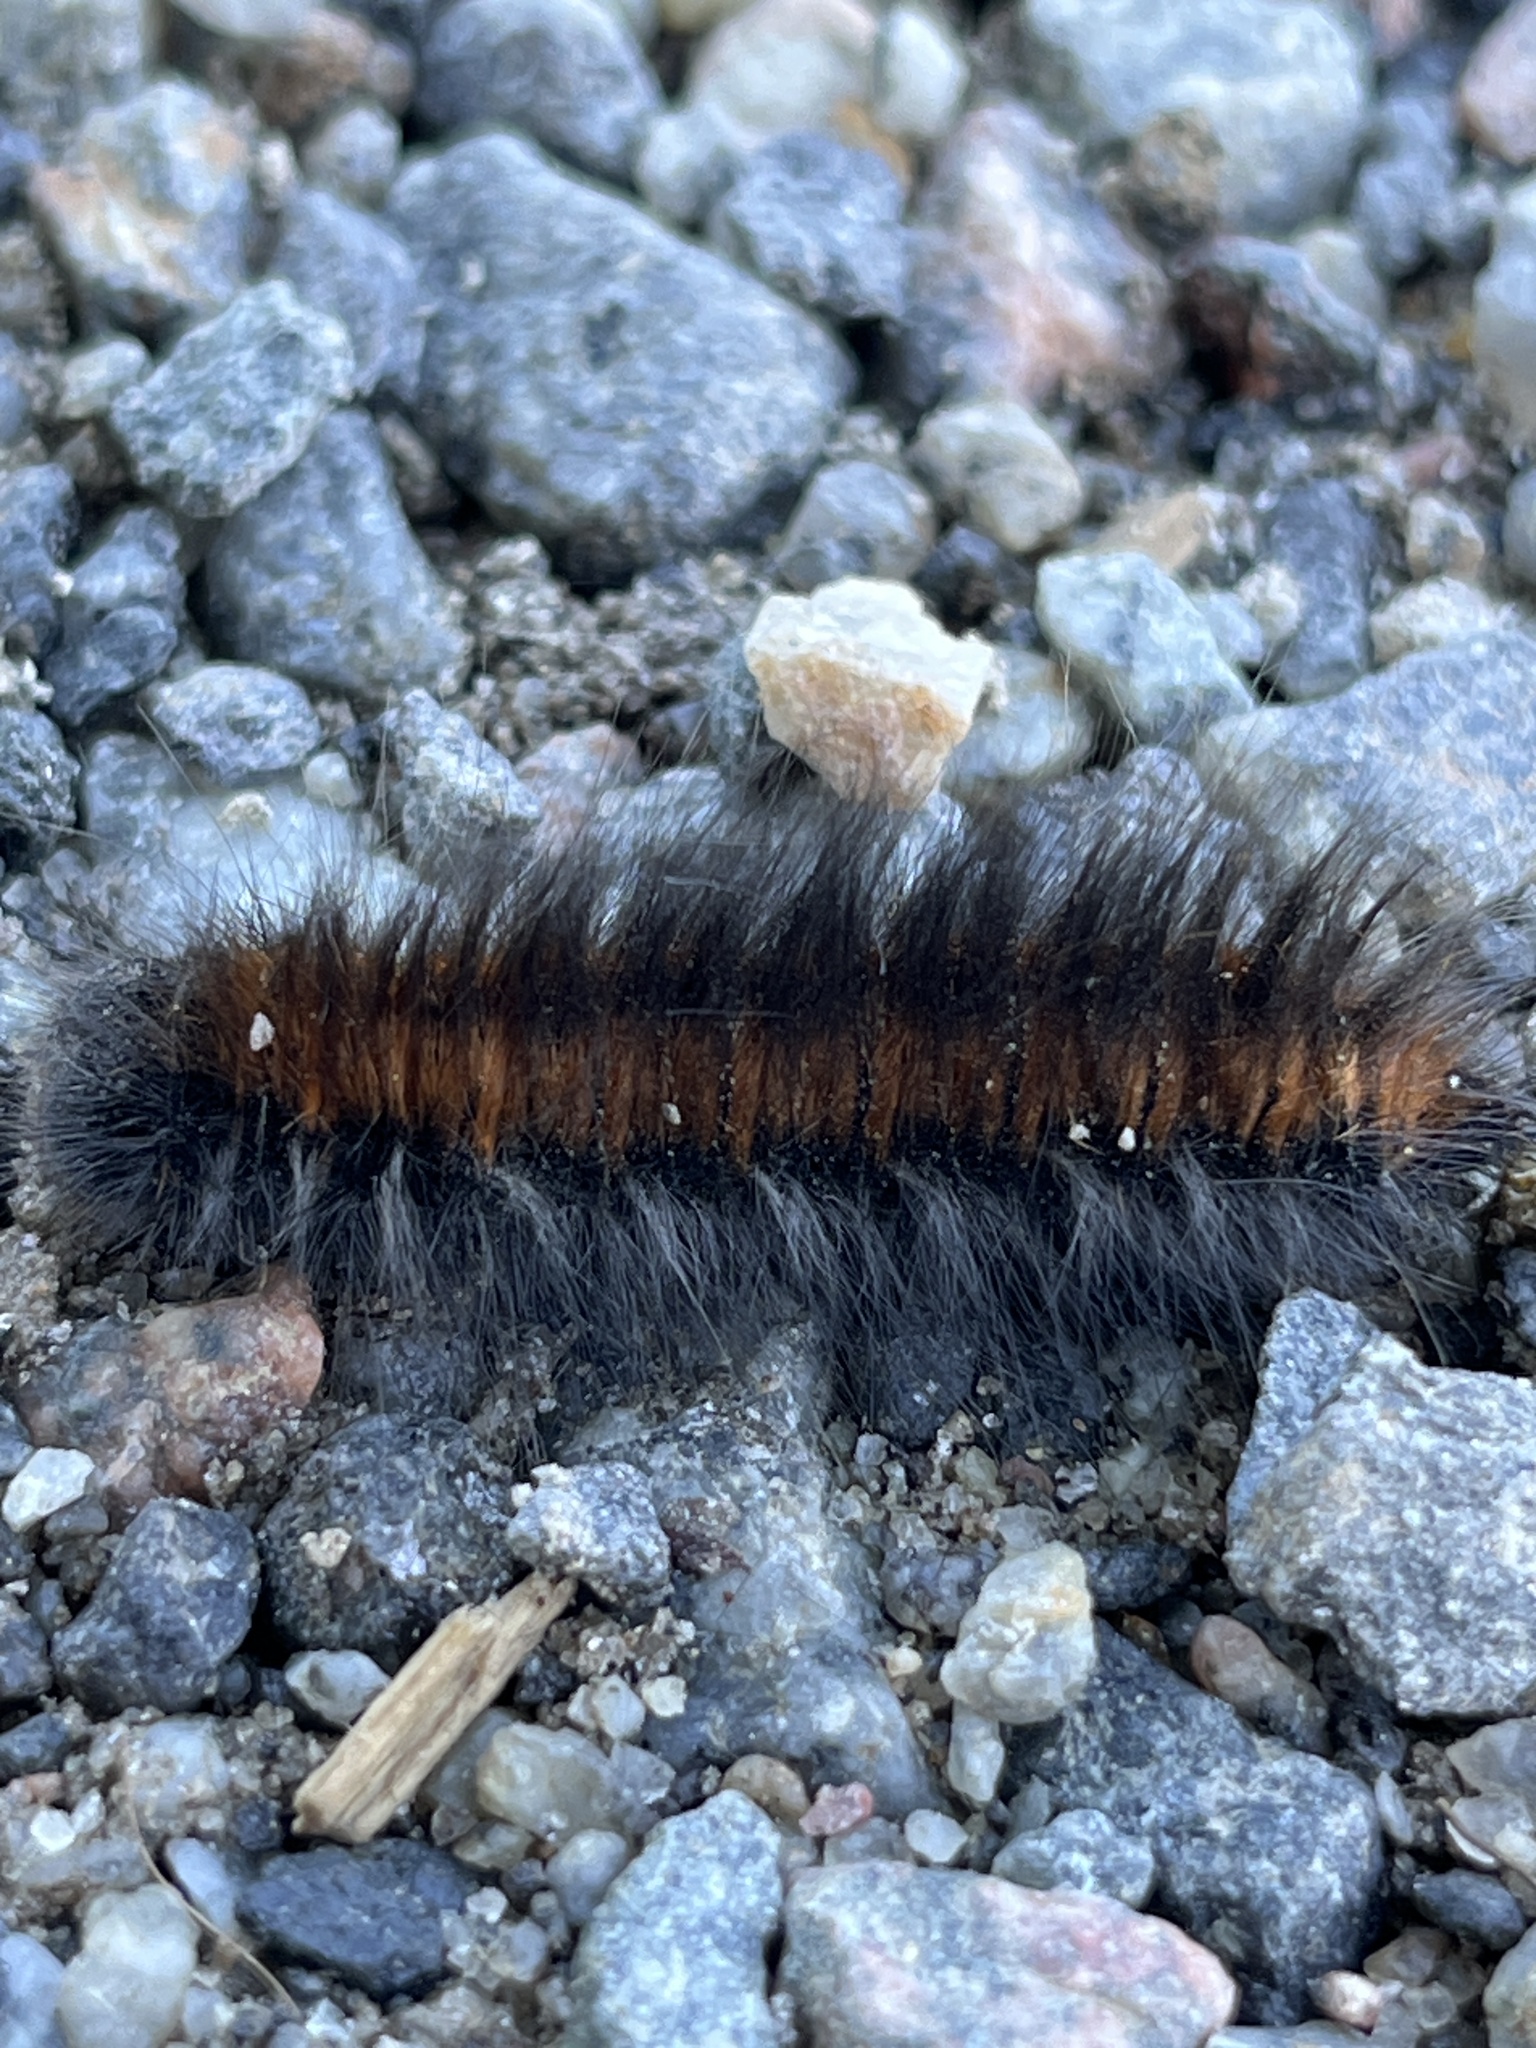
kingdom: Animalia
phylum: Arthropoda
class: Insecta
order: Lepidoptera
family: Lasiocampidae
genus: Macrothylacia
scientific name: Macrothylacia rubi
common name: Fox moth
